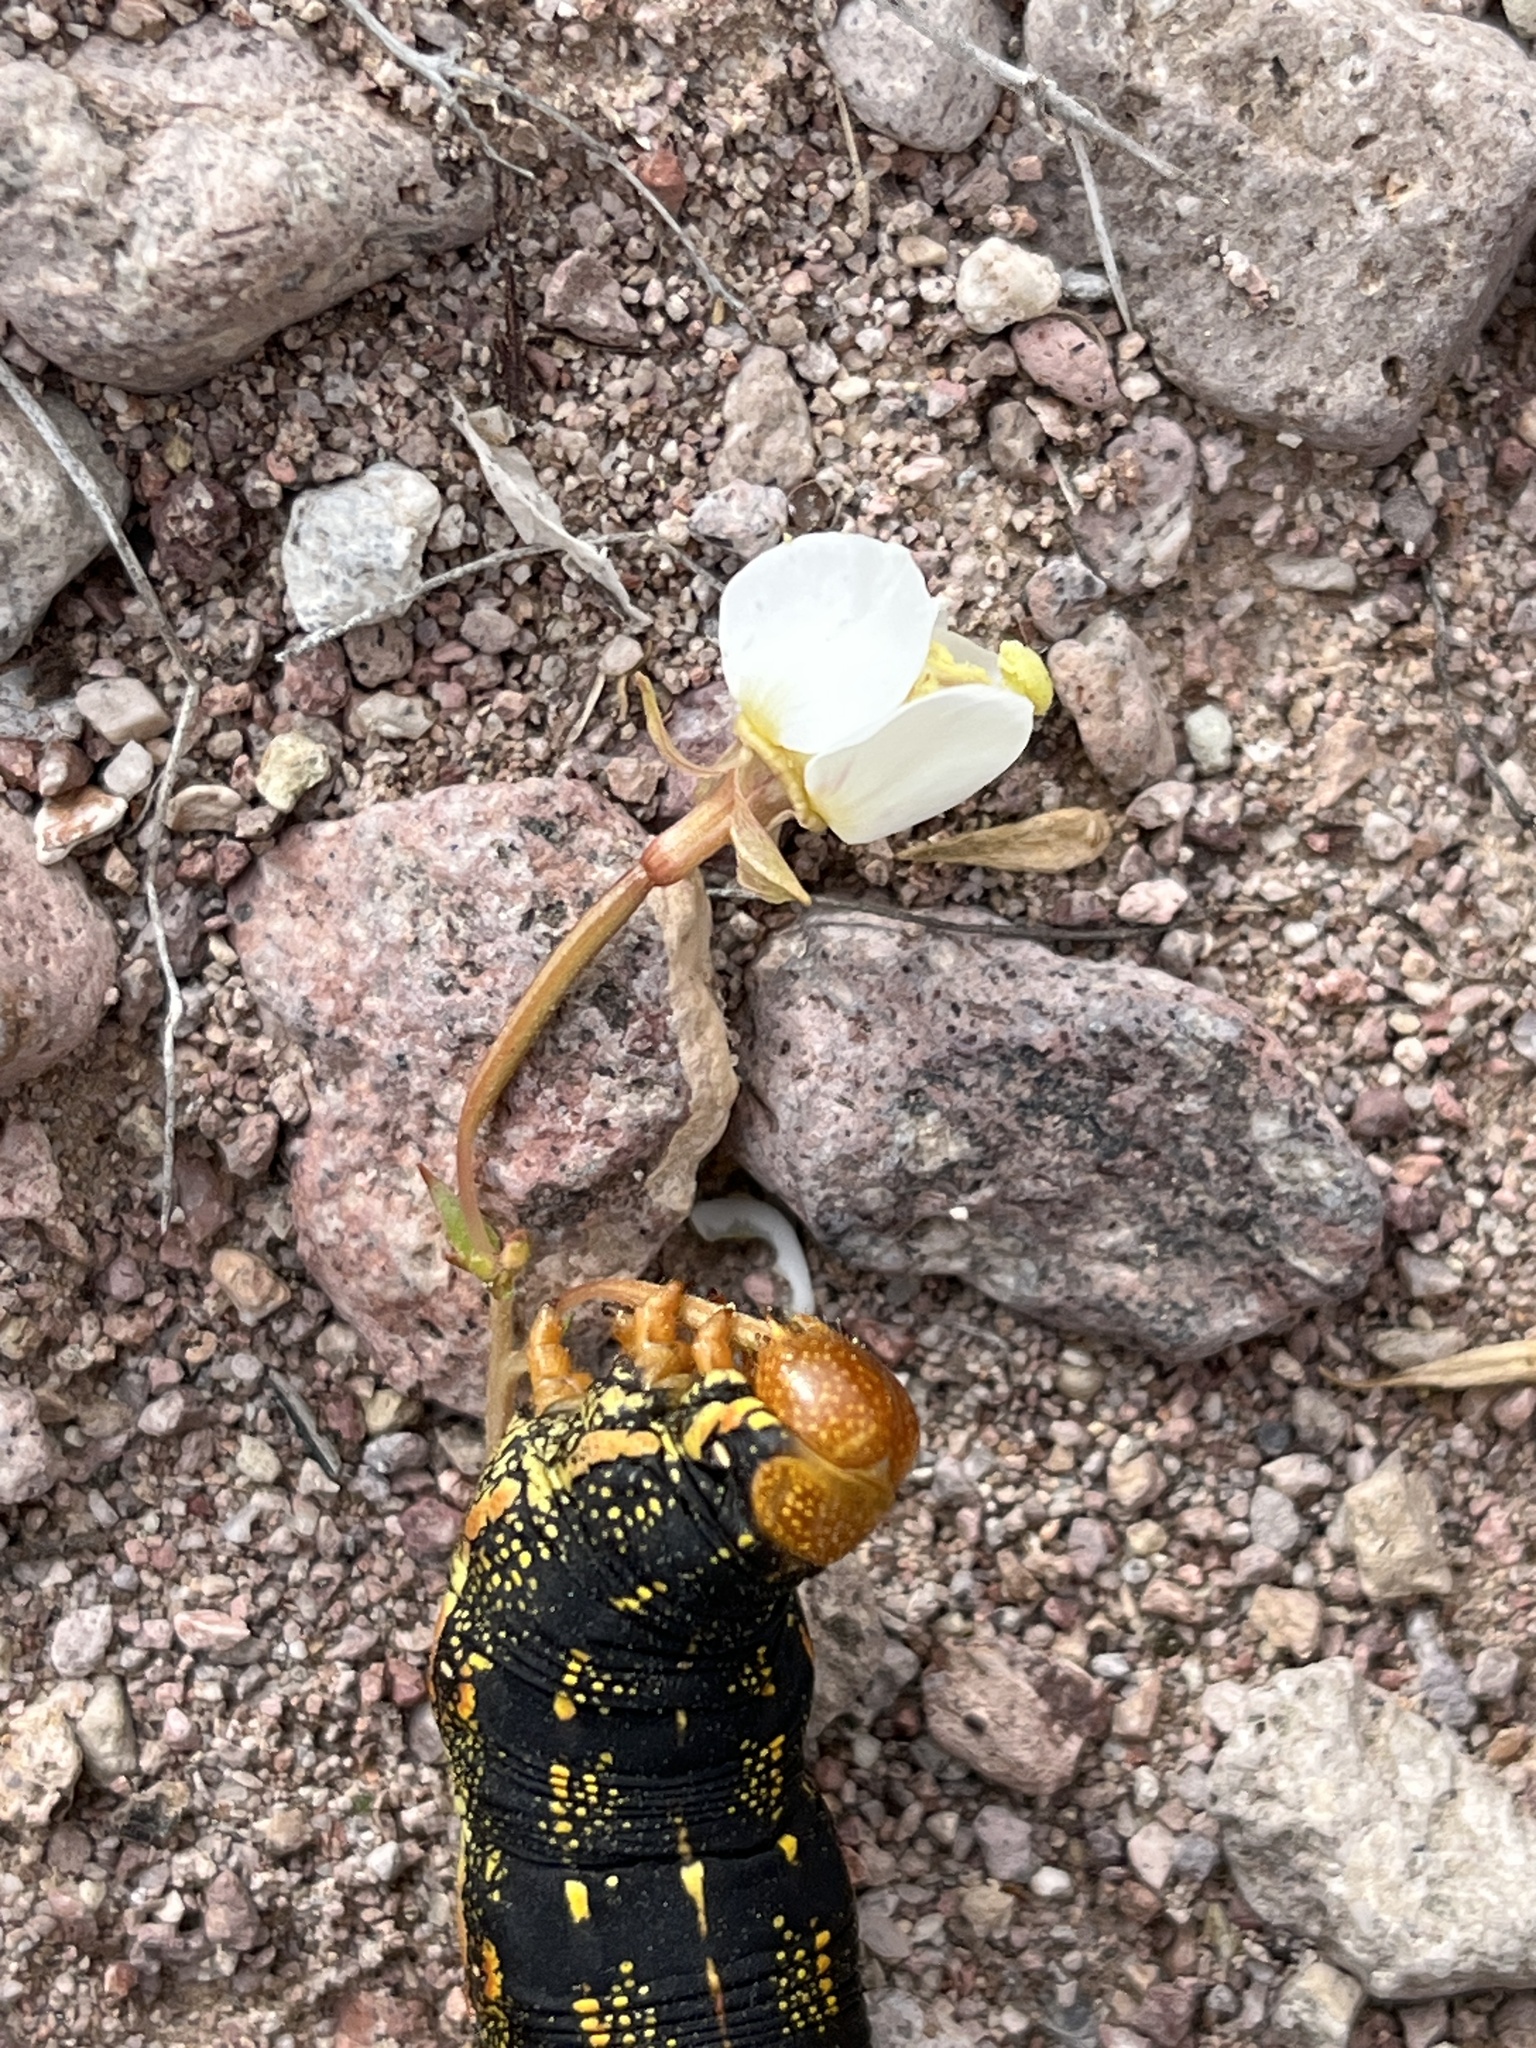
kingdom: Animalia
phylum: Arthropoda
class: Insecta
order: Lepidoptera
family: Sphingidae
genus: Hyles
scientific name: Hyles lineata
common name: White-lined sphinx
